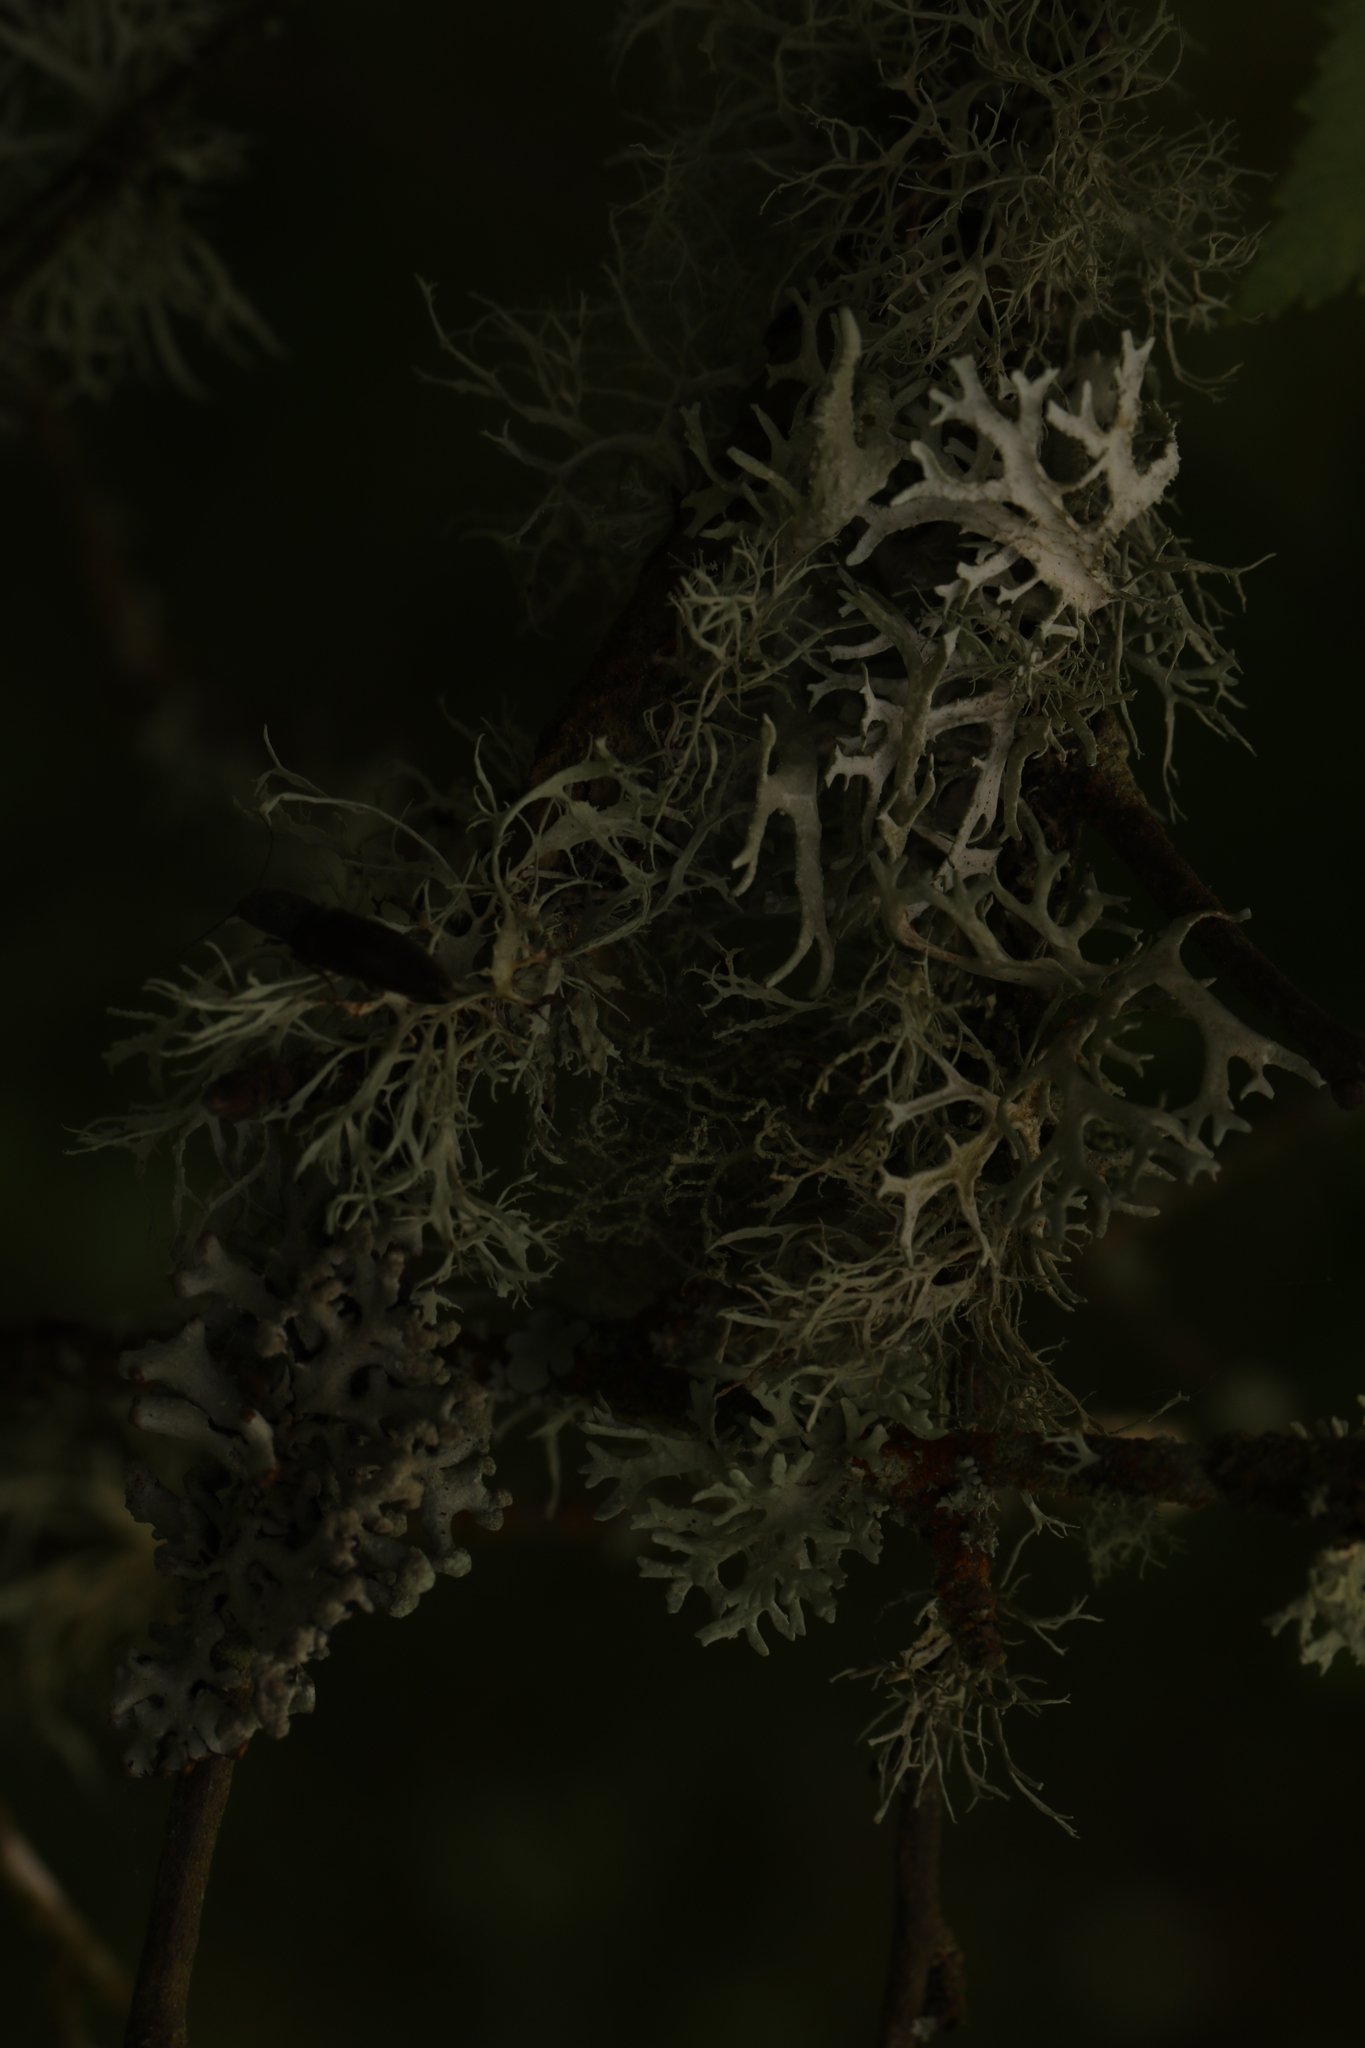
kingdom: Fungi
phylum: Ascomycota
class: Lecanoromycetes
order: Lecanorales
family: Parmeliaceae
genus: Evernia
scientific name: Evernia prunastri
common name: Oak moss
